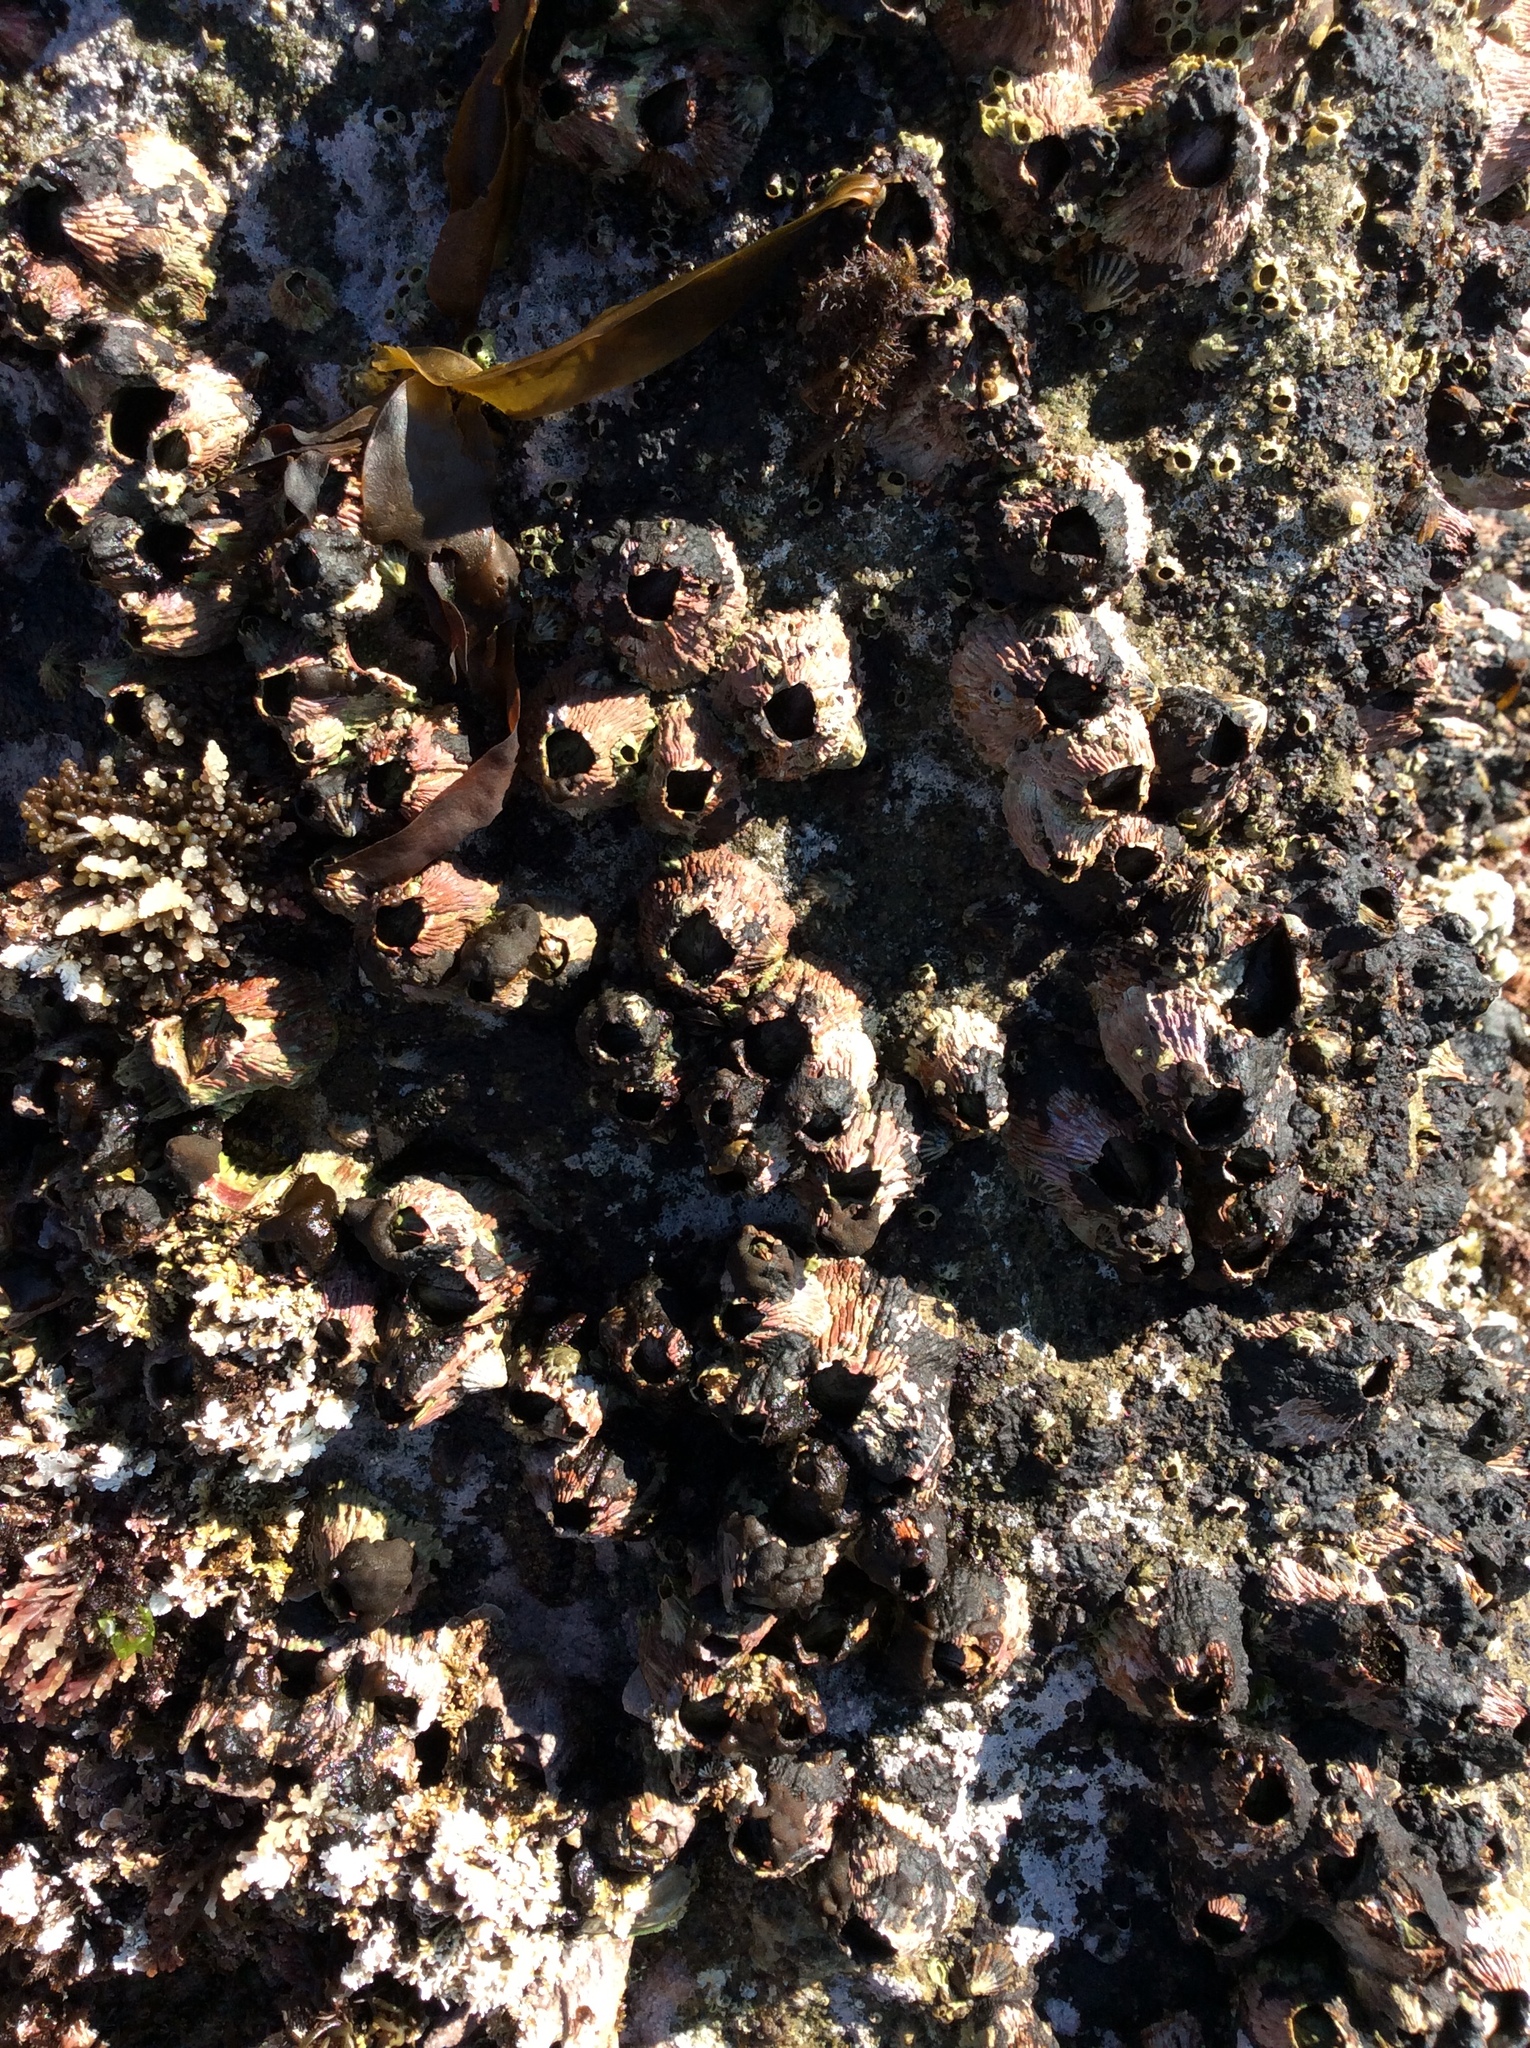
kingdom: Animalia
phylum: Arthropoda
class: Maxillopoda
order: Sessilia
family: Tetraclitidae
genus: Tetraclita
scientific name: Tetraclita rubescens
